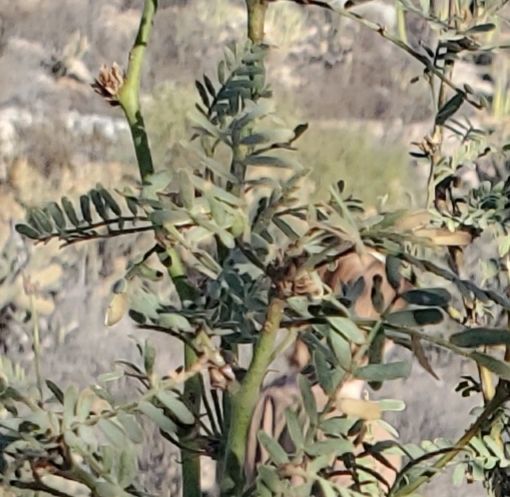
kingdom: Plantae
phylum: Tracheophyta
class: Magnoliopsida
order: Fabales
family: Fabaceae
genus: Prosopis
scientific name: Prosopis pubescens
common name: Screw-bean
